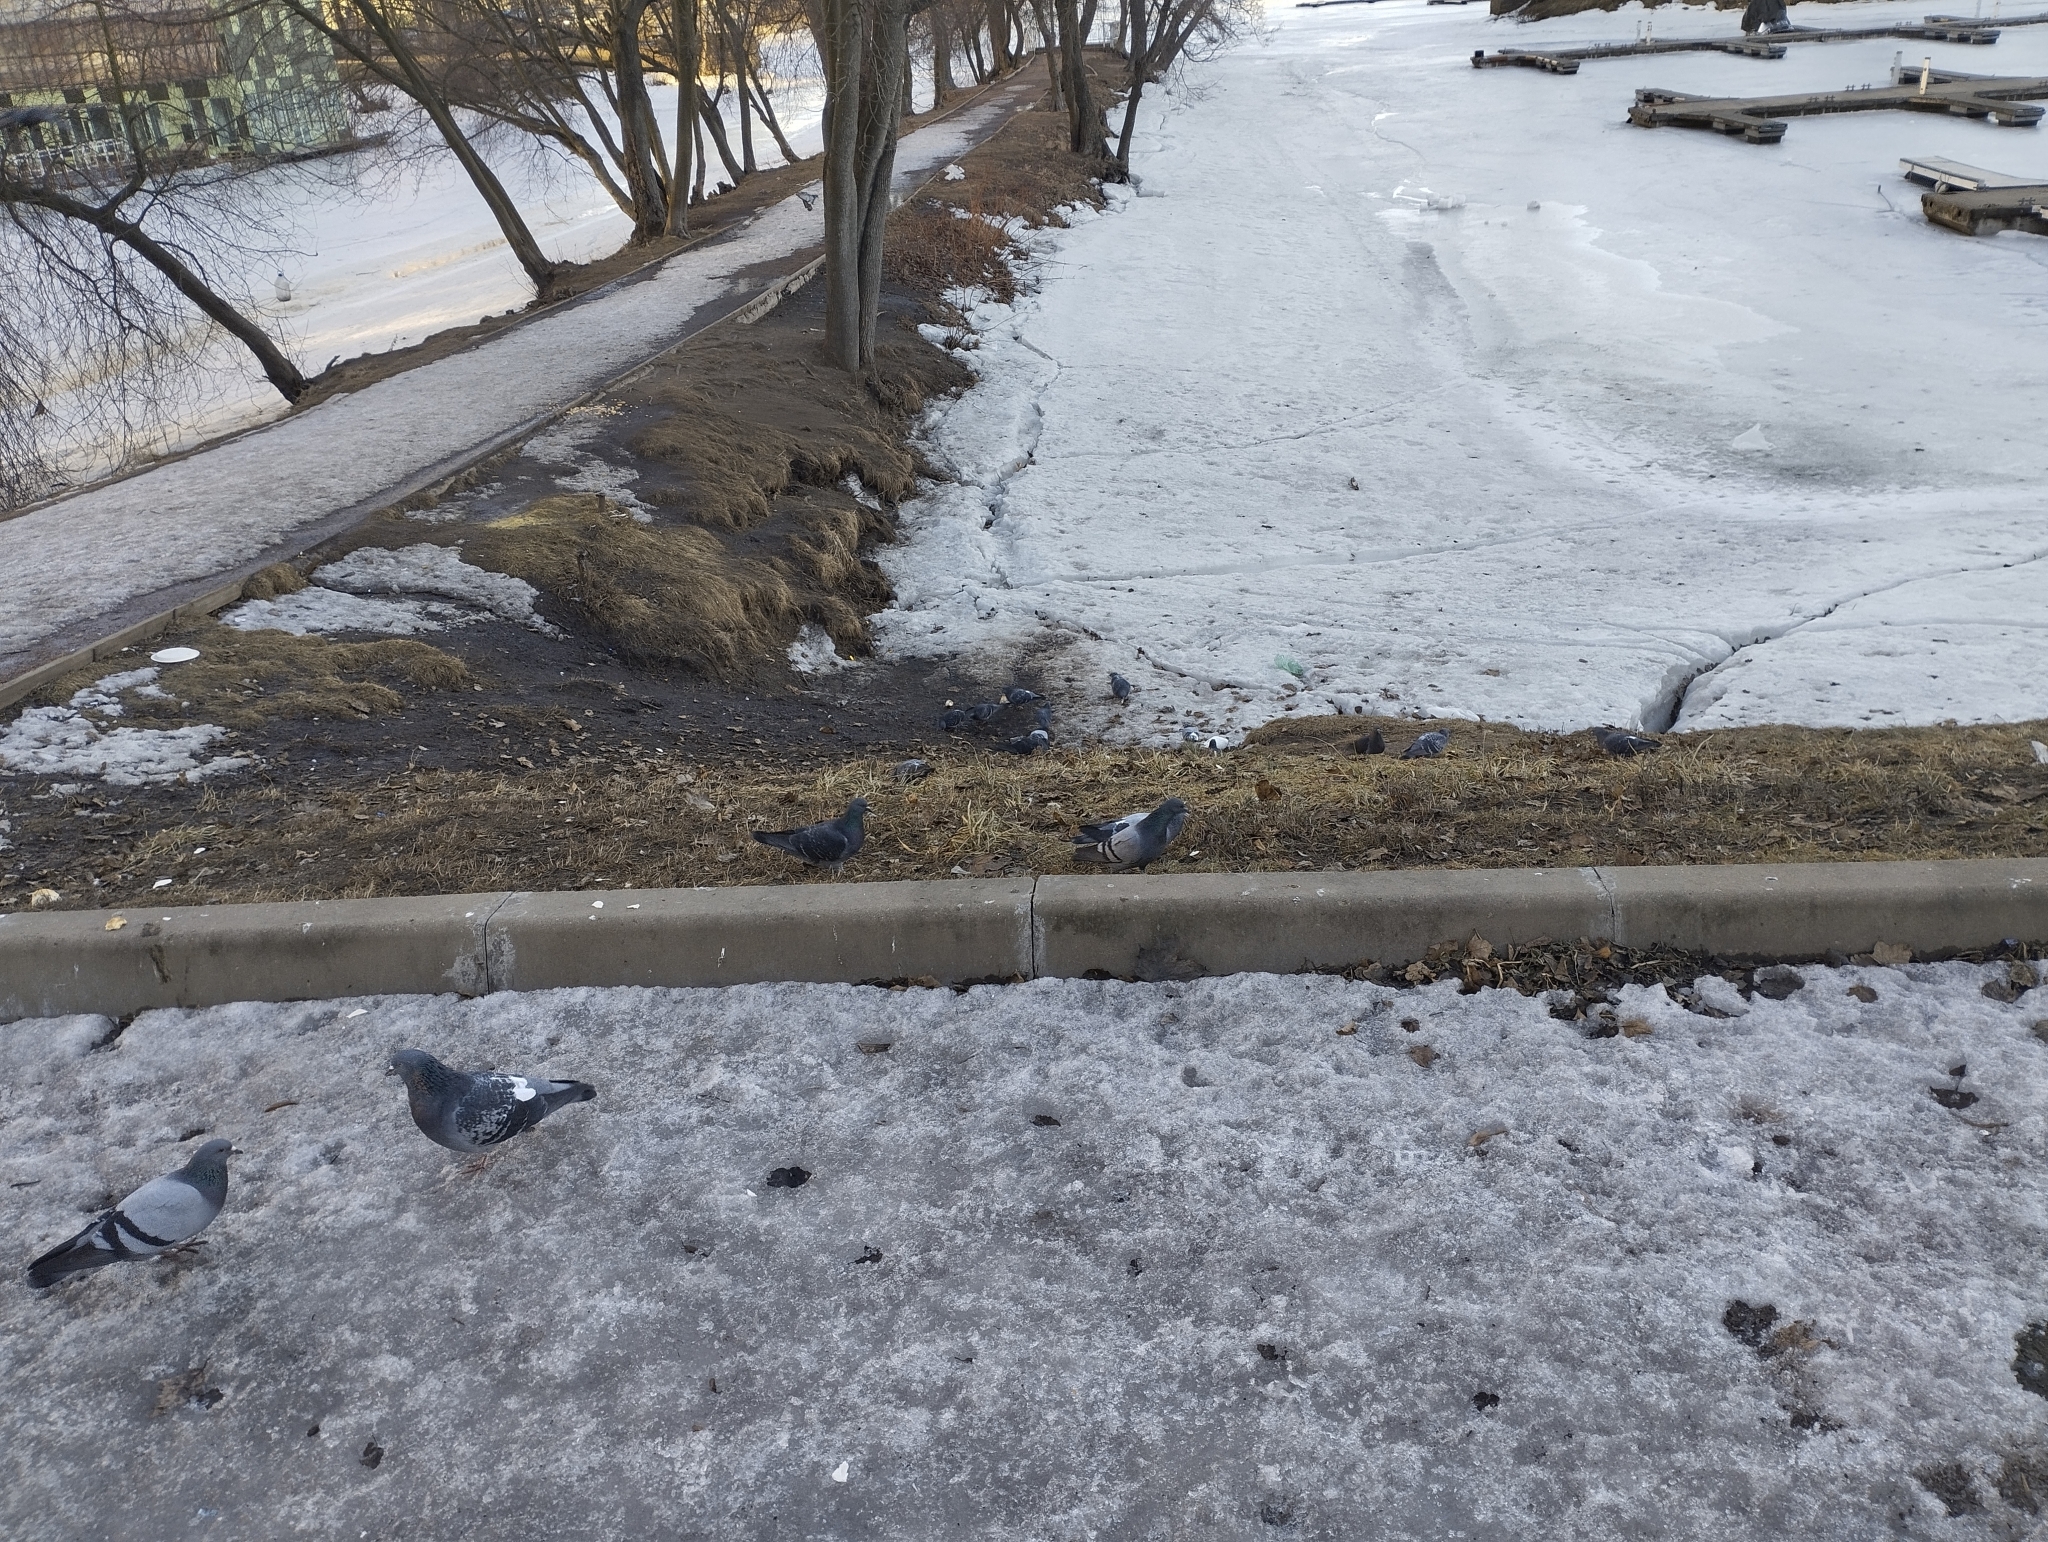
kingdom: Animalia
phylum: Chordata
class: Aves
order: Columbiformes
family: Columbidae
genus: Columba
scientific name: Columba livia
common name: Rock pigeon
